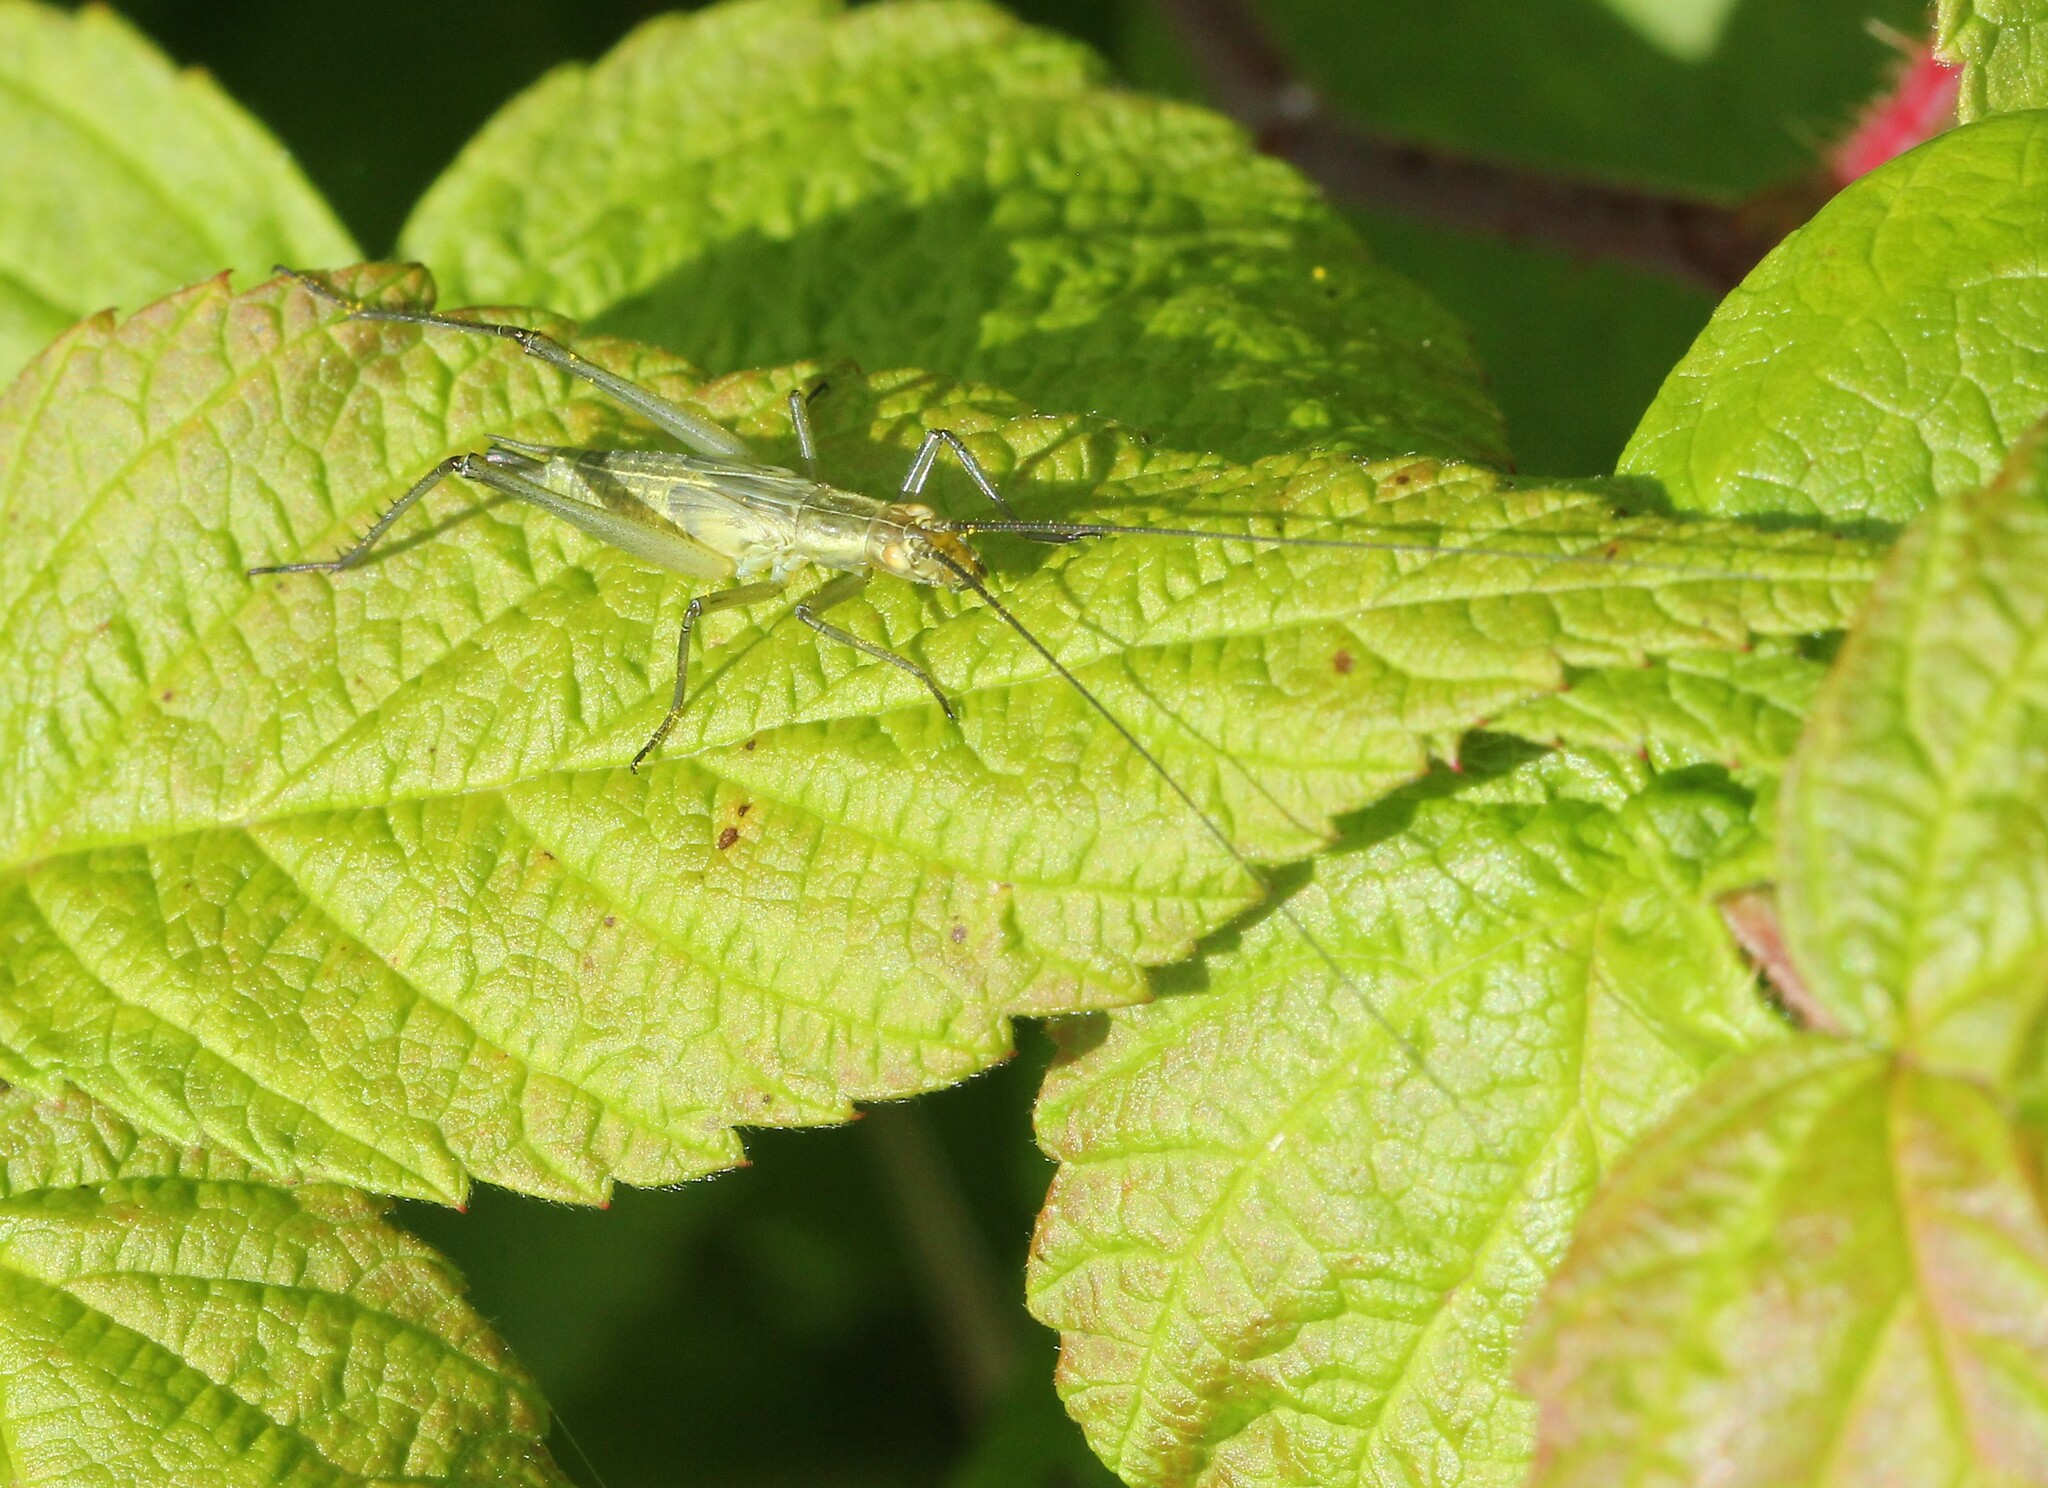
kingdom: Animalia
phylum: Arthropoda
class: Insecta
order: Orthoptera
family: Gryllidae
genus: Oecanthus
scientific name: Oecanthus nigricornis
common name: Black-horned tree cricket
